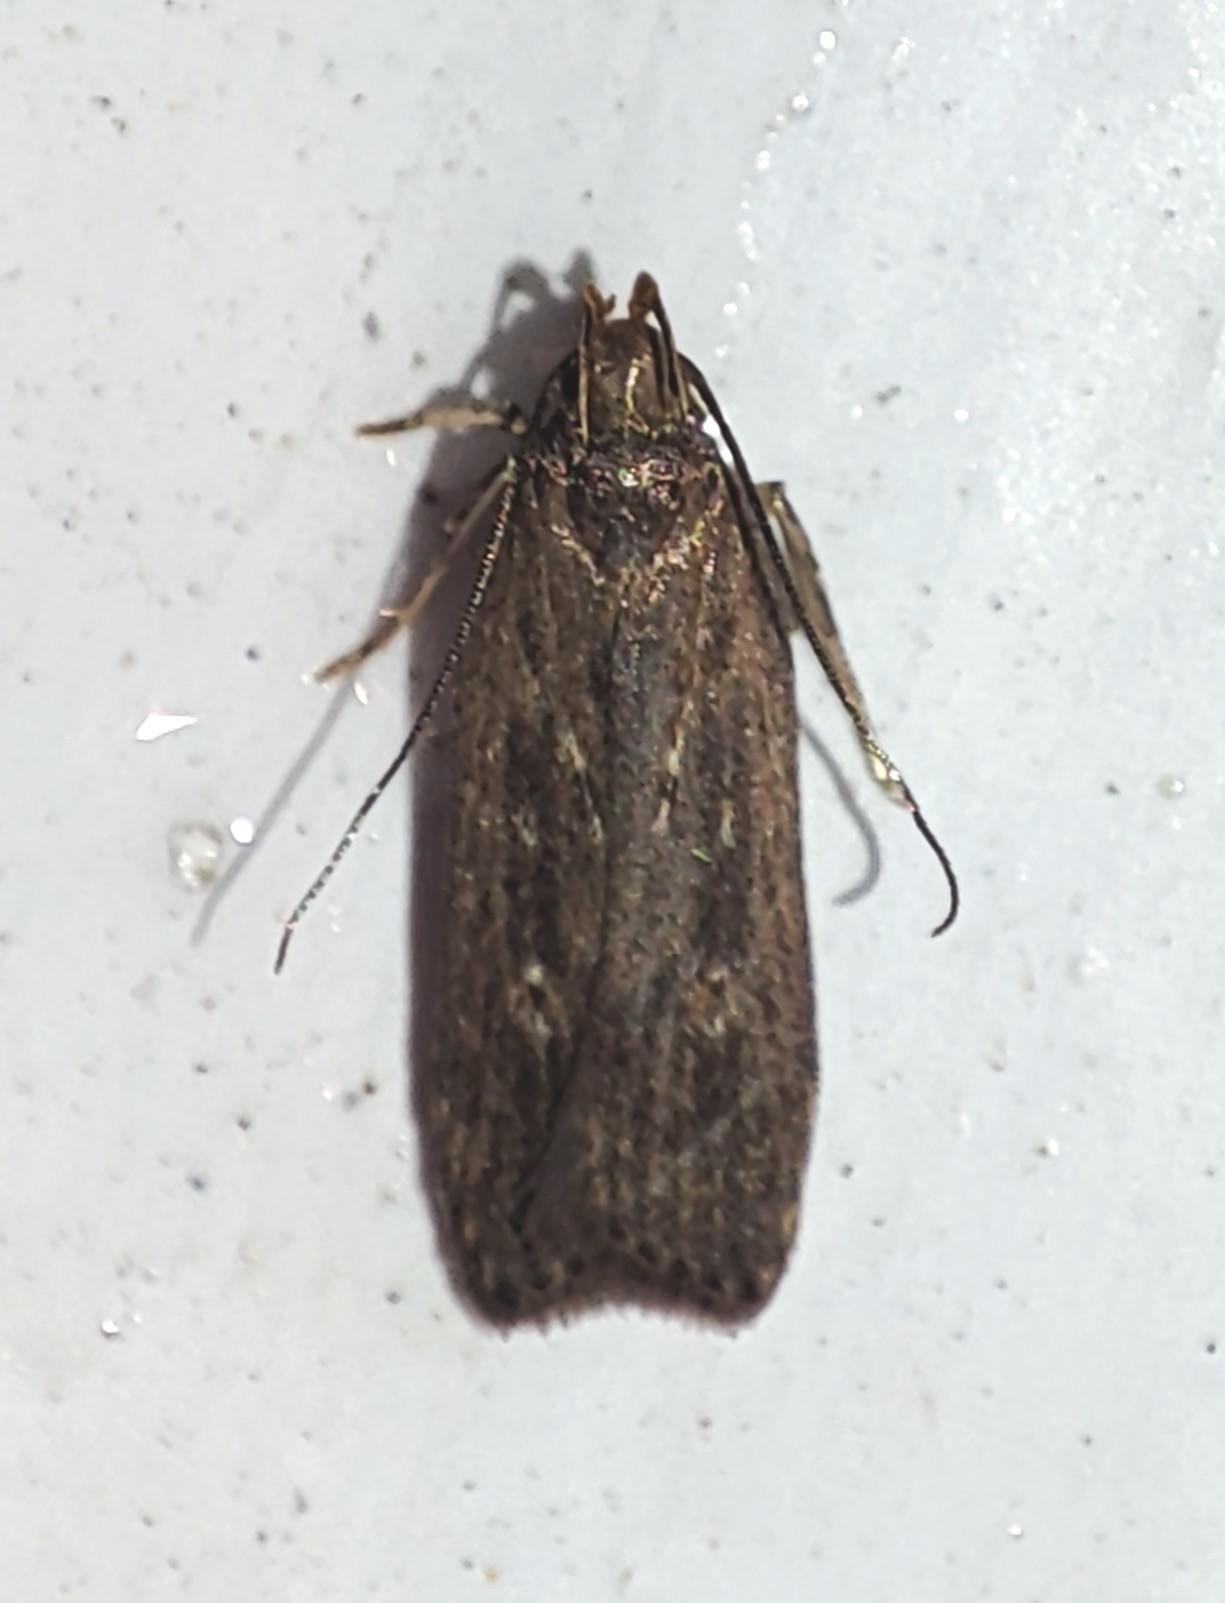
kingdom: Animalia
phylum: Arthropoda
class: Insecta
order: Lepidoptera
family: Gelechiidae
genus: Helcystogramma
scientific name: Helcystogramma triannulella
